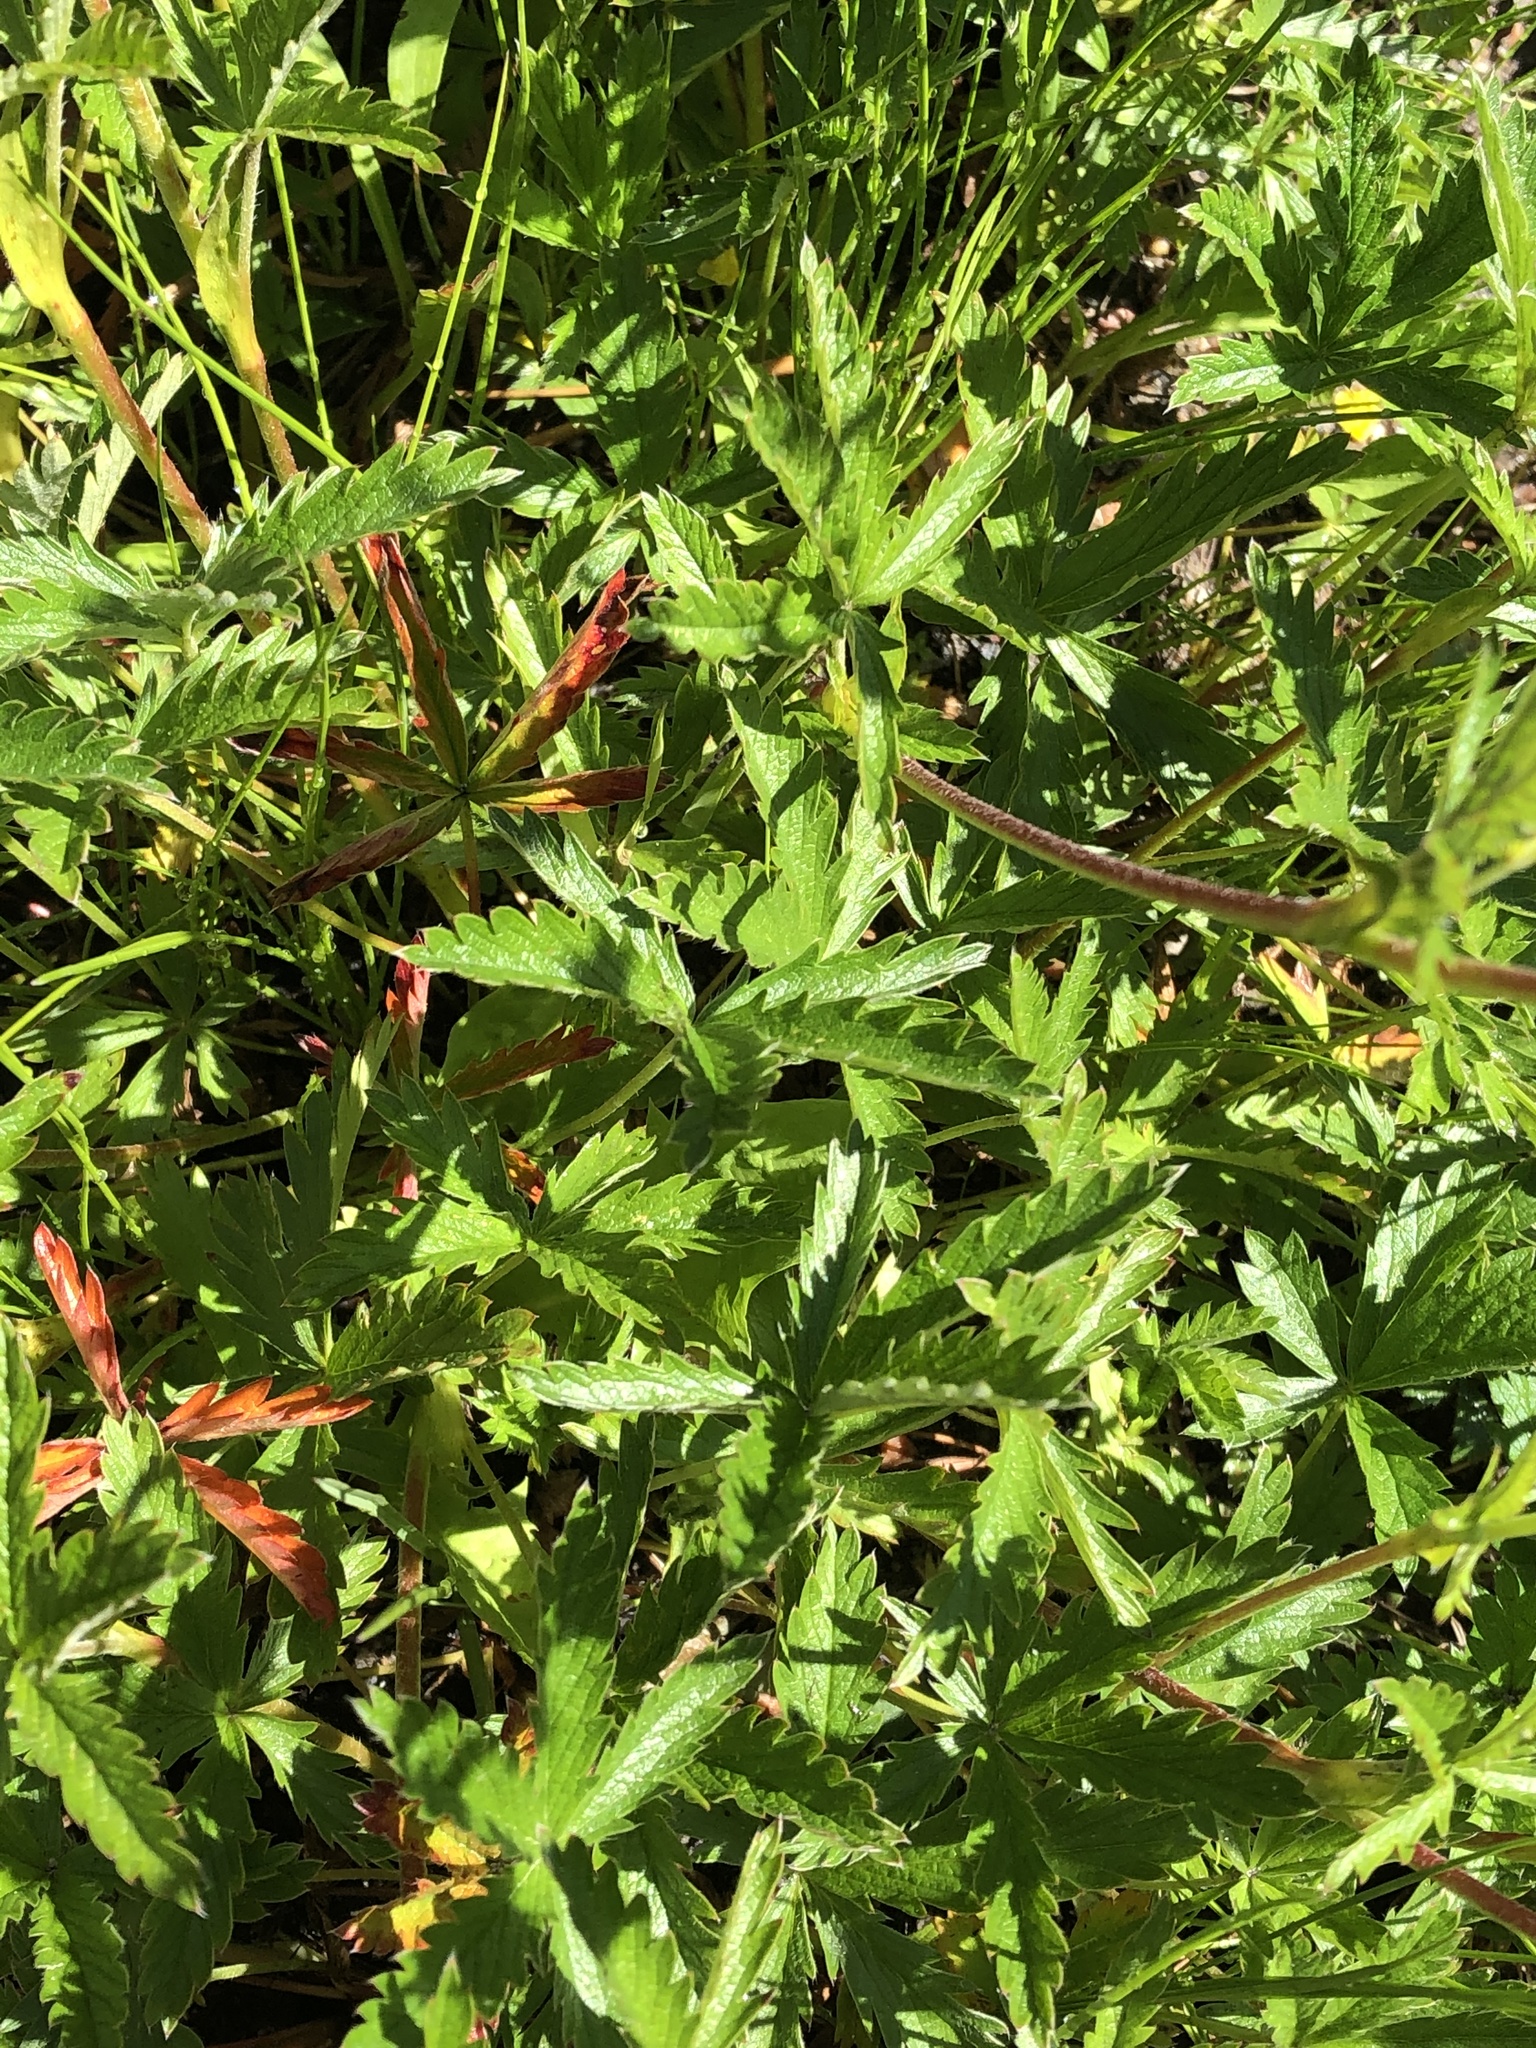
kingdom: Plantae
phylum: Tracheophyta
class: Magnoliopsida
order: Rosales
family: Rosaceae
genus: Potentilla
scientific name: Potentilla gracilis
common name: Graceful cinquefoil
